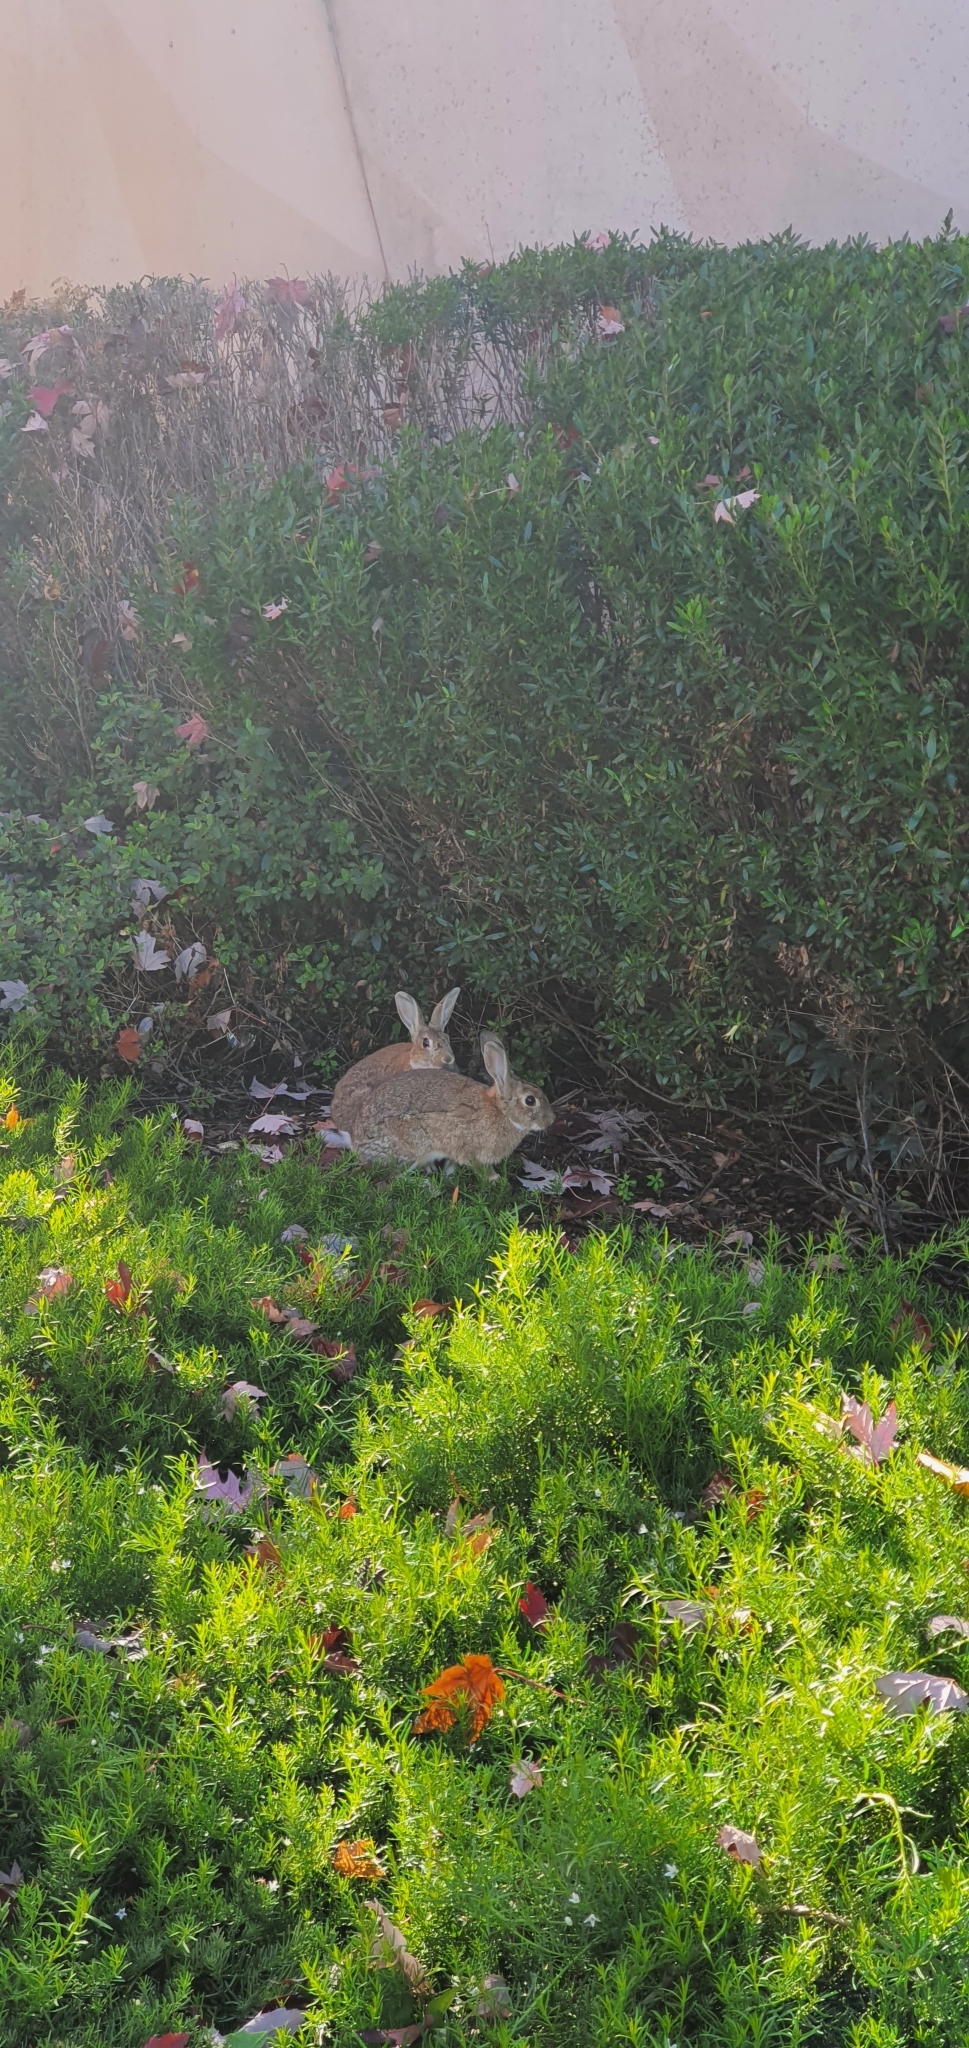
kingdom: Animalia
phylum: Chordata
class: Mammalia
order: Lagomorpha
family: Leporidae
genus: Oryctolagus
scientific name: Oryctolagus cuniculus
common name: European rabbit
